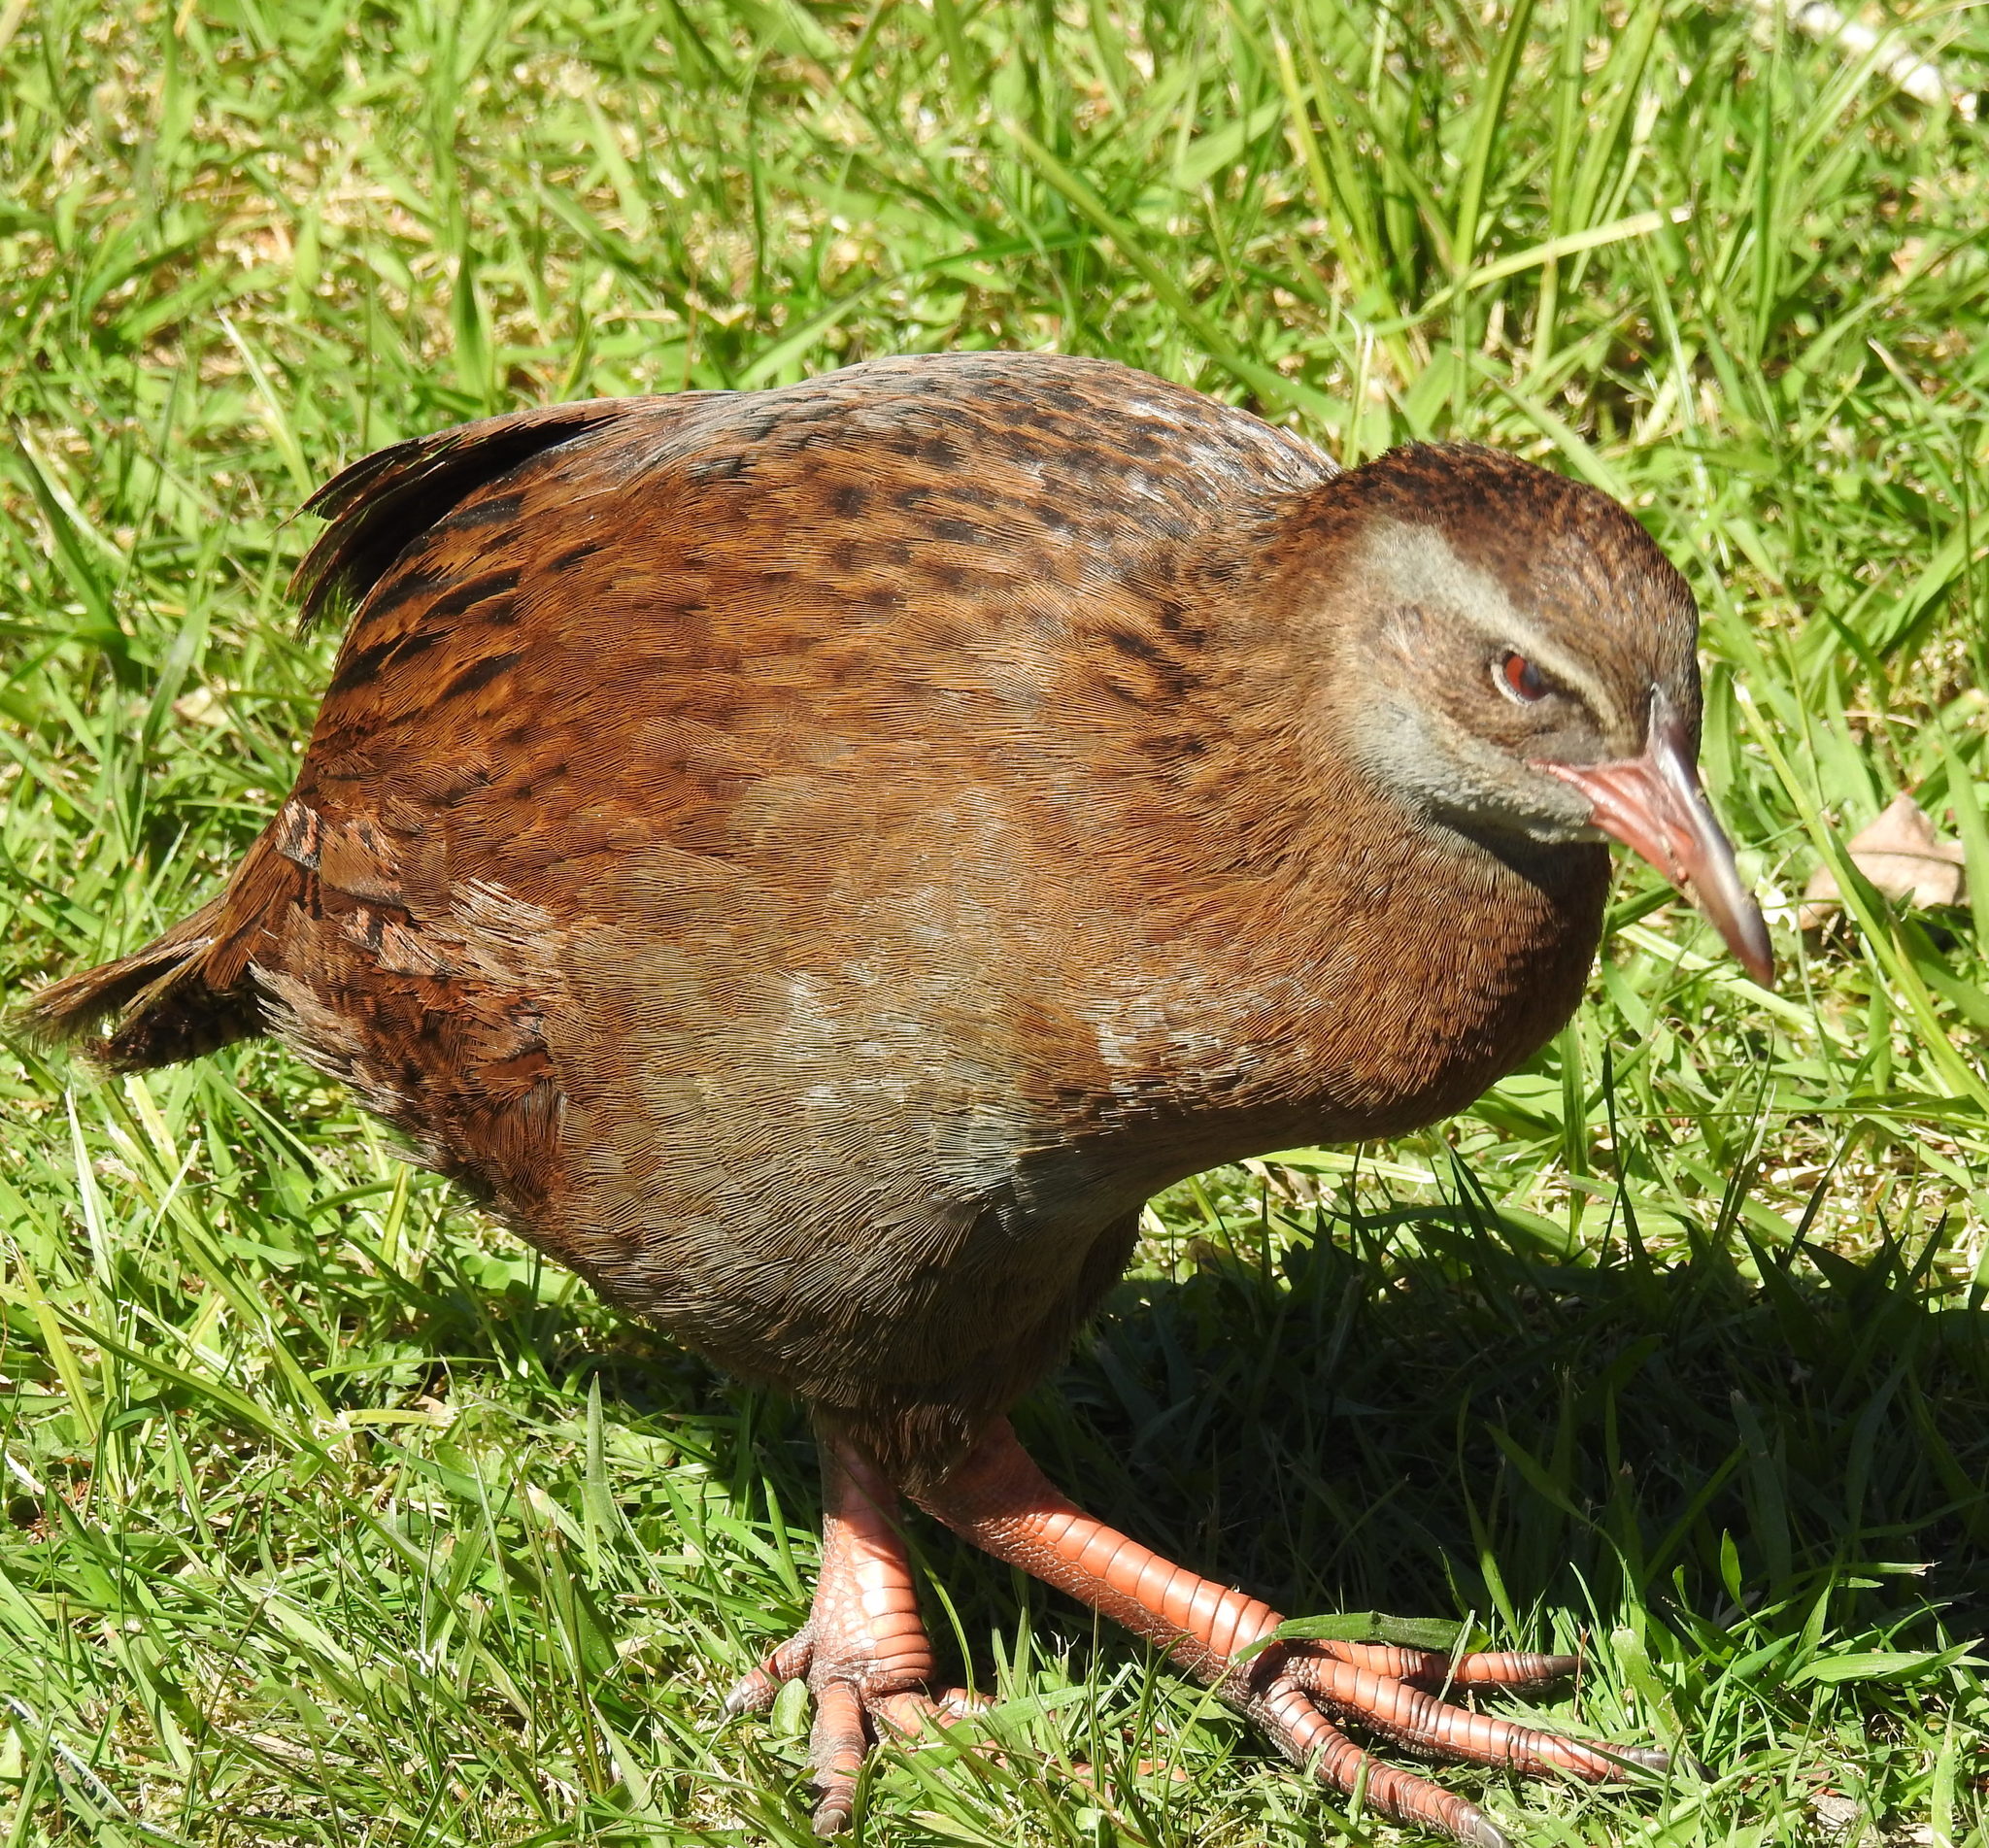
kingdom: Animalia
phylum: Chordata
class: Aves
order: Gruiformes
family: Rallidae
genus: Gallirallus
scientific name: Gallirallus australis
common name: Weka
